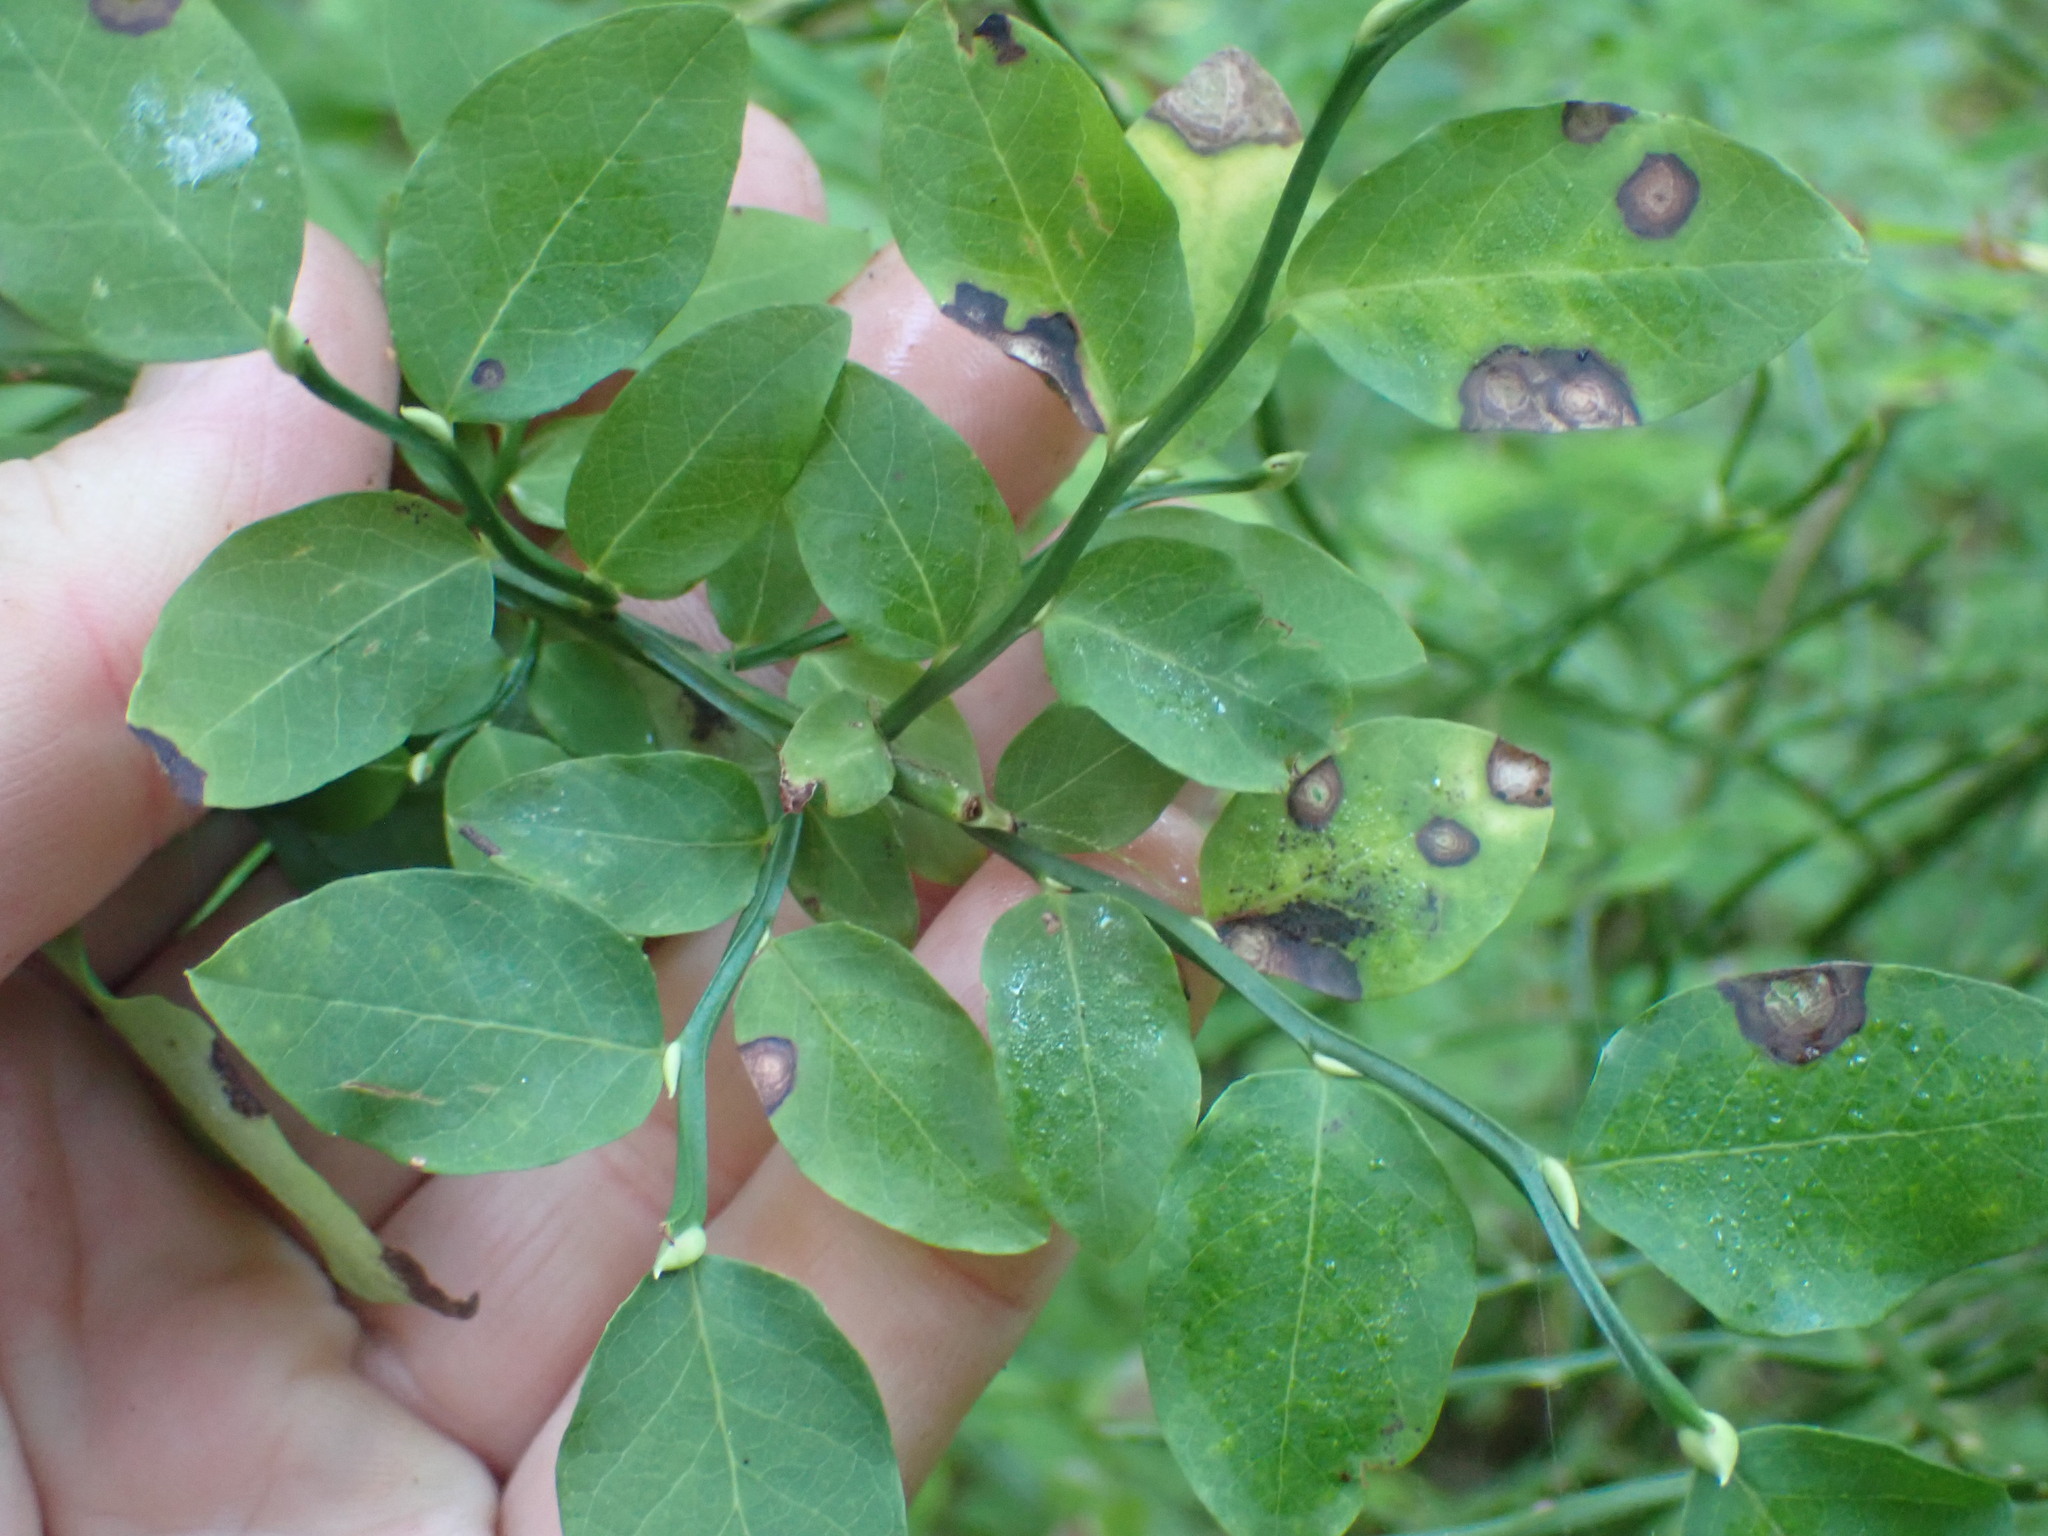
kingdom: Plantae
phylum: Tracheophyta
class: Magnoliopsida
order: Ericales
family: Ericaceae
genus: Vaccinium
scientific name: Vaccinium parvifolium
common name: Red-huckleberry
